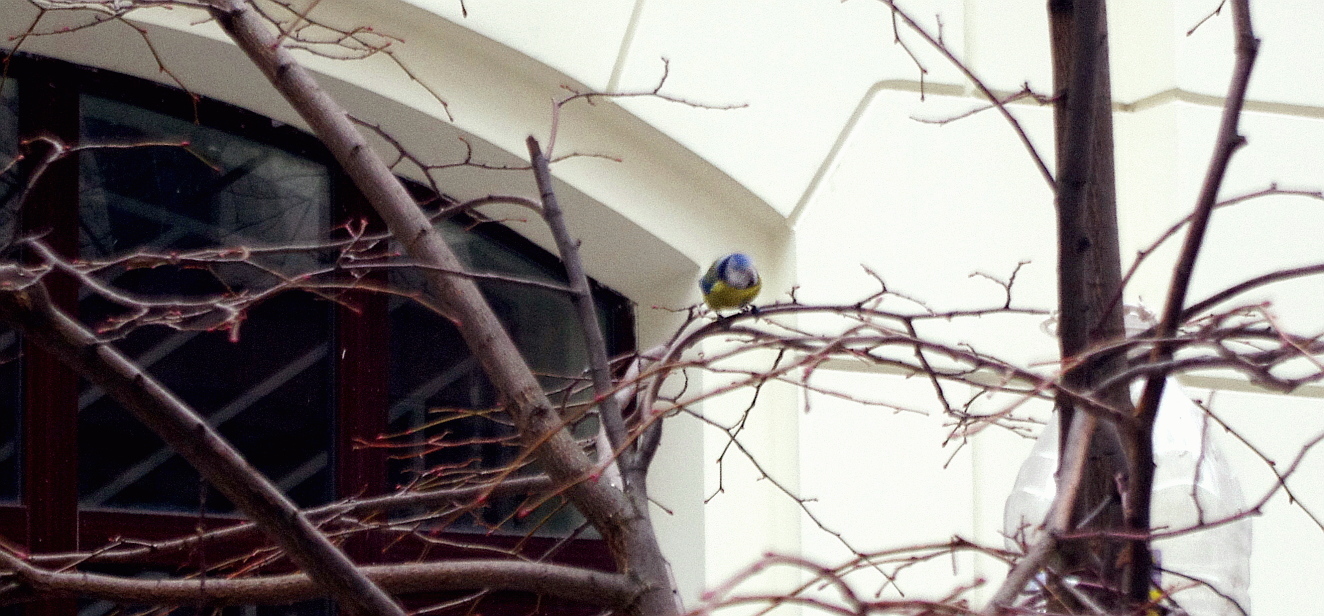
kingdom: Animalia
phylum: Chordata
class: Aves
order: Passeriformes
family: Paridae
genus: Cyanistes
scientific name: Cyanistes caeruleus
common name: Eurasian blue tit
